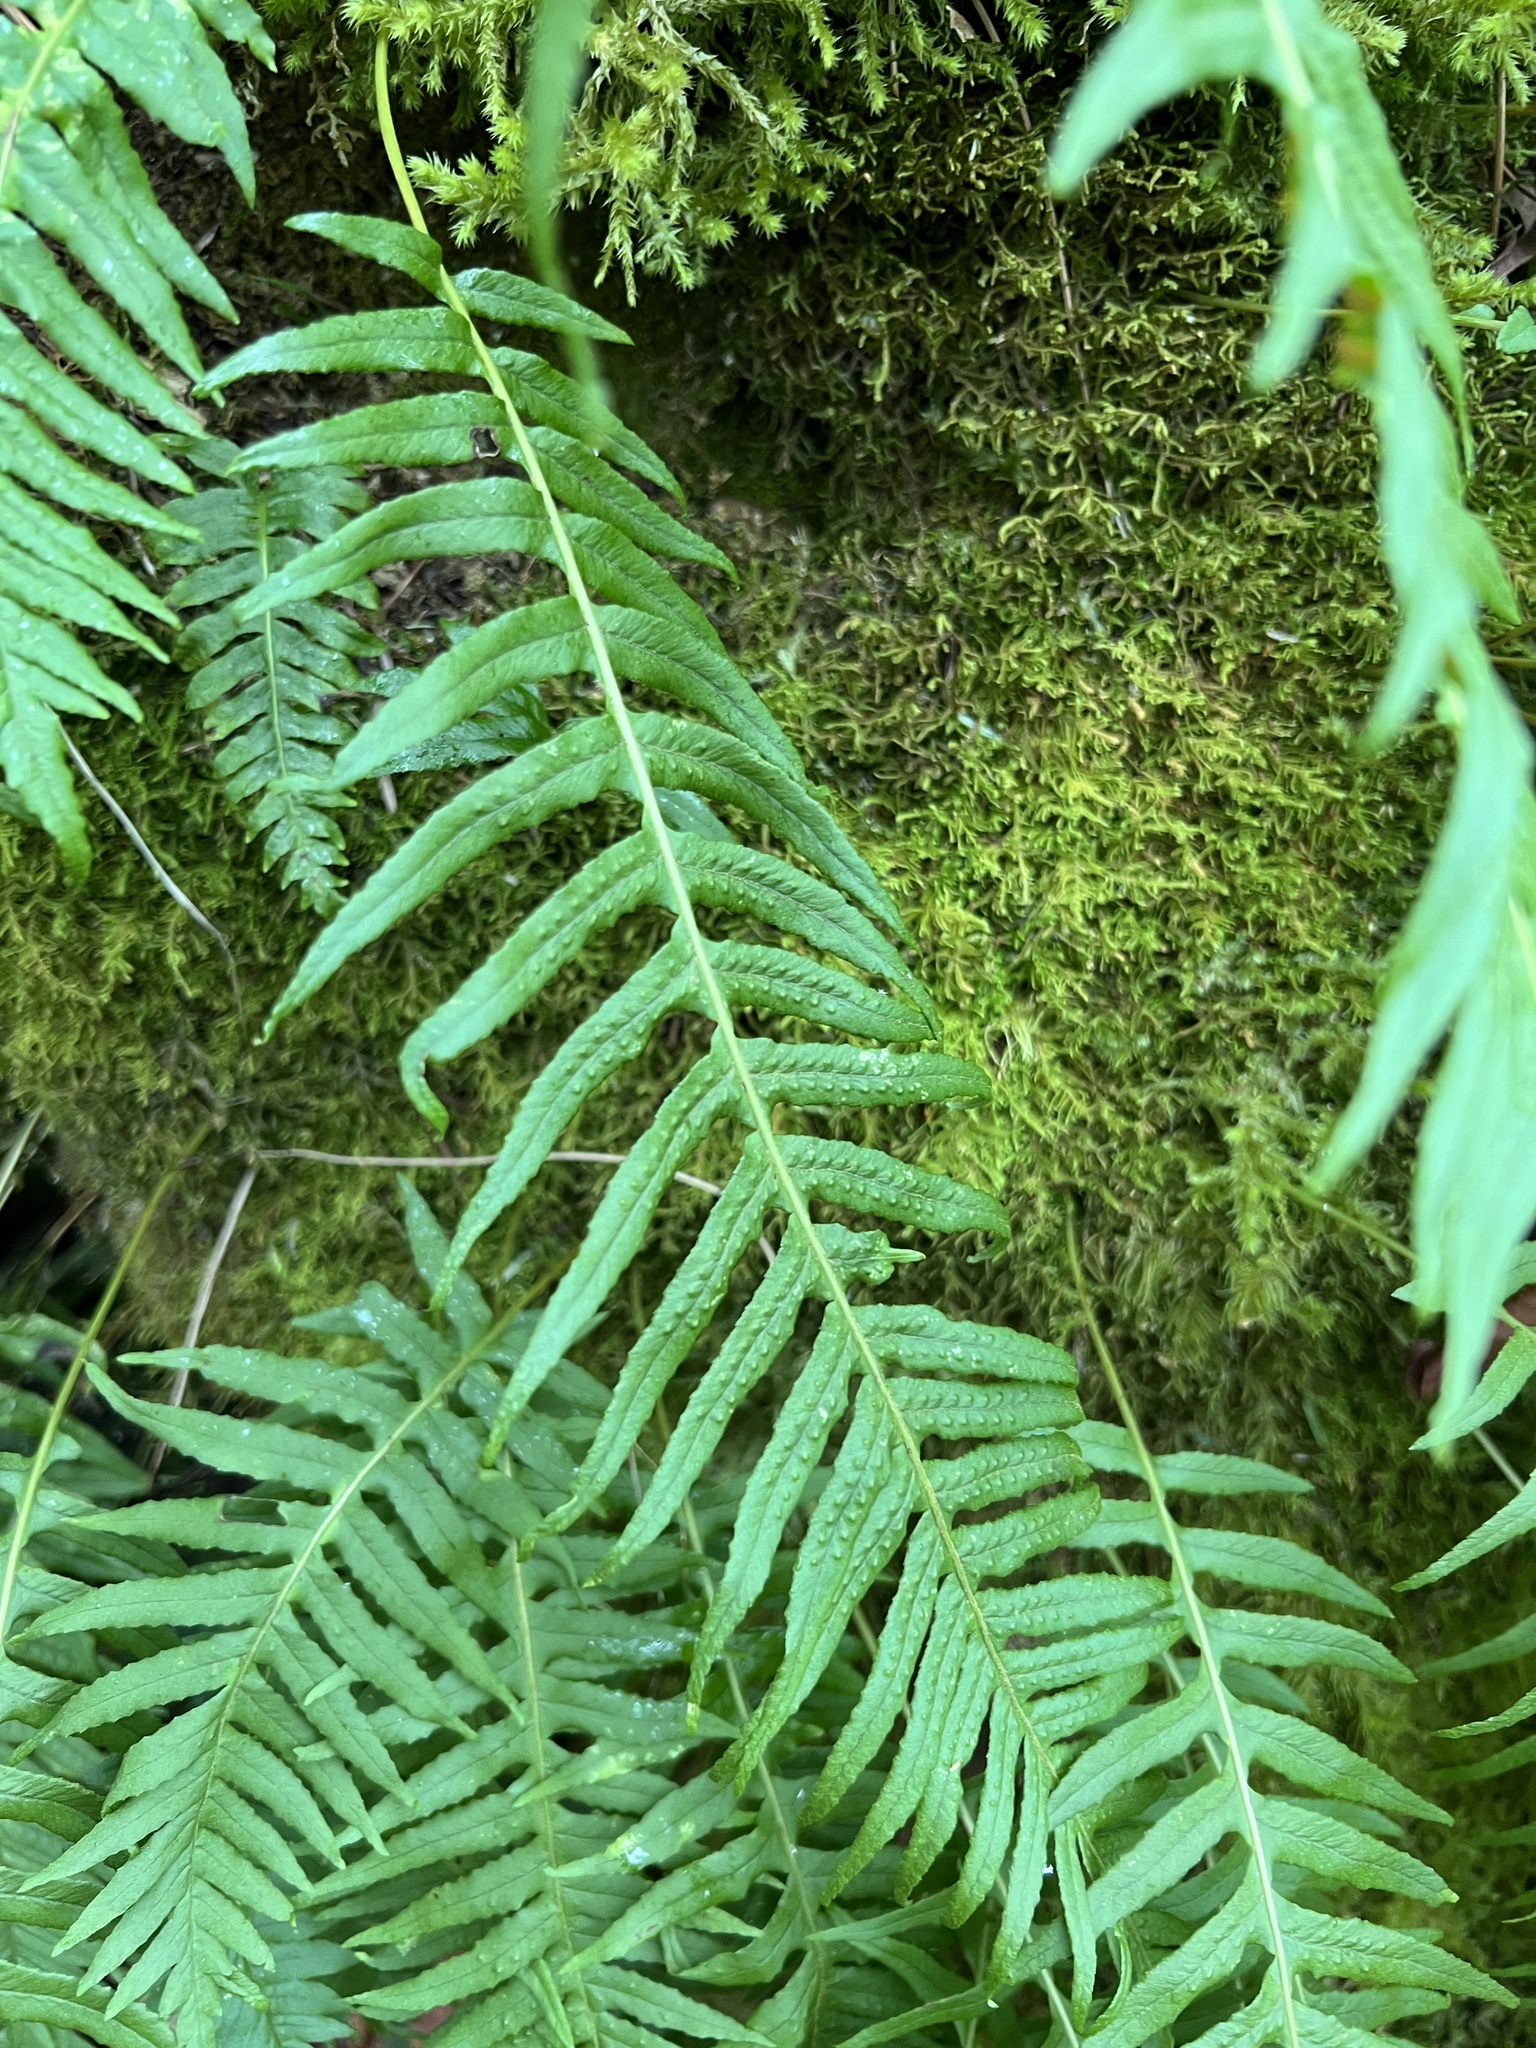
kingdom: Plantae
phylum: Tracheophyta
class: Polypodiopsida
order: Polypodiales
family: Polypodiaceae
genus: Polypodium
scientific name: Polypodium glycyrrhiza
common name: Licorice fern
